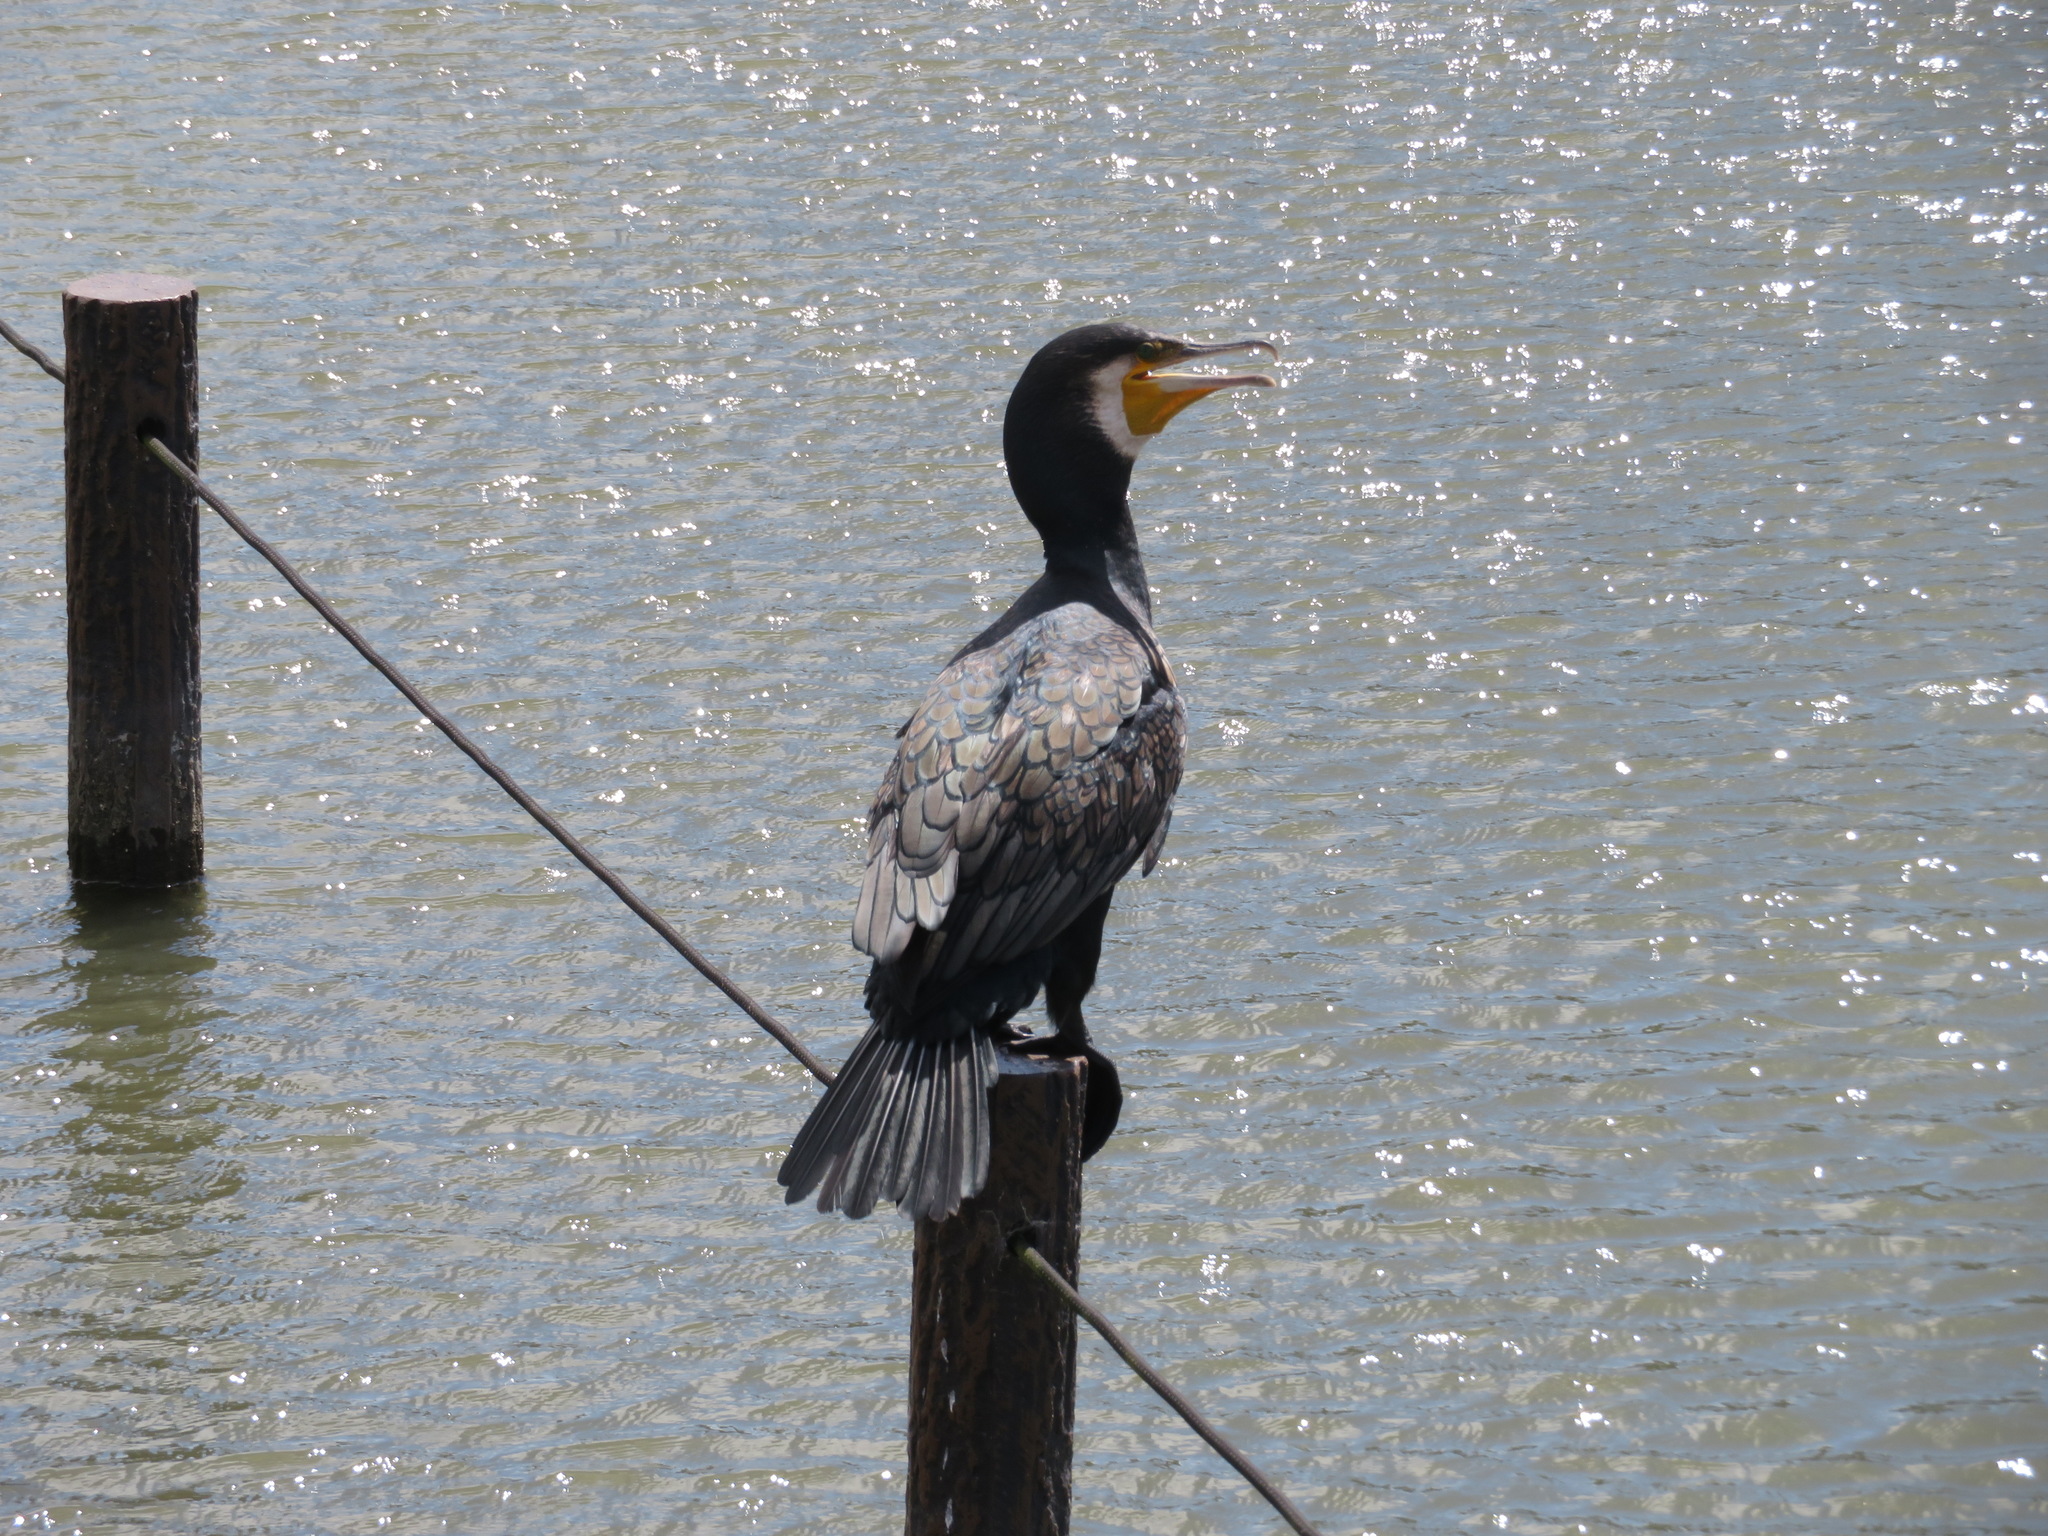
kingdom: Animalia
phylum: Chordata
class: Aves
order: Suliformes
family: Phalacrocoracidae
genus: Phalacrocorax
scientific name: Phalacrocorax carbo
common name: Great cormorant
